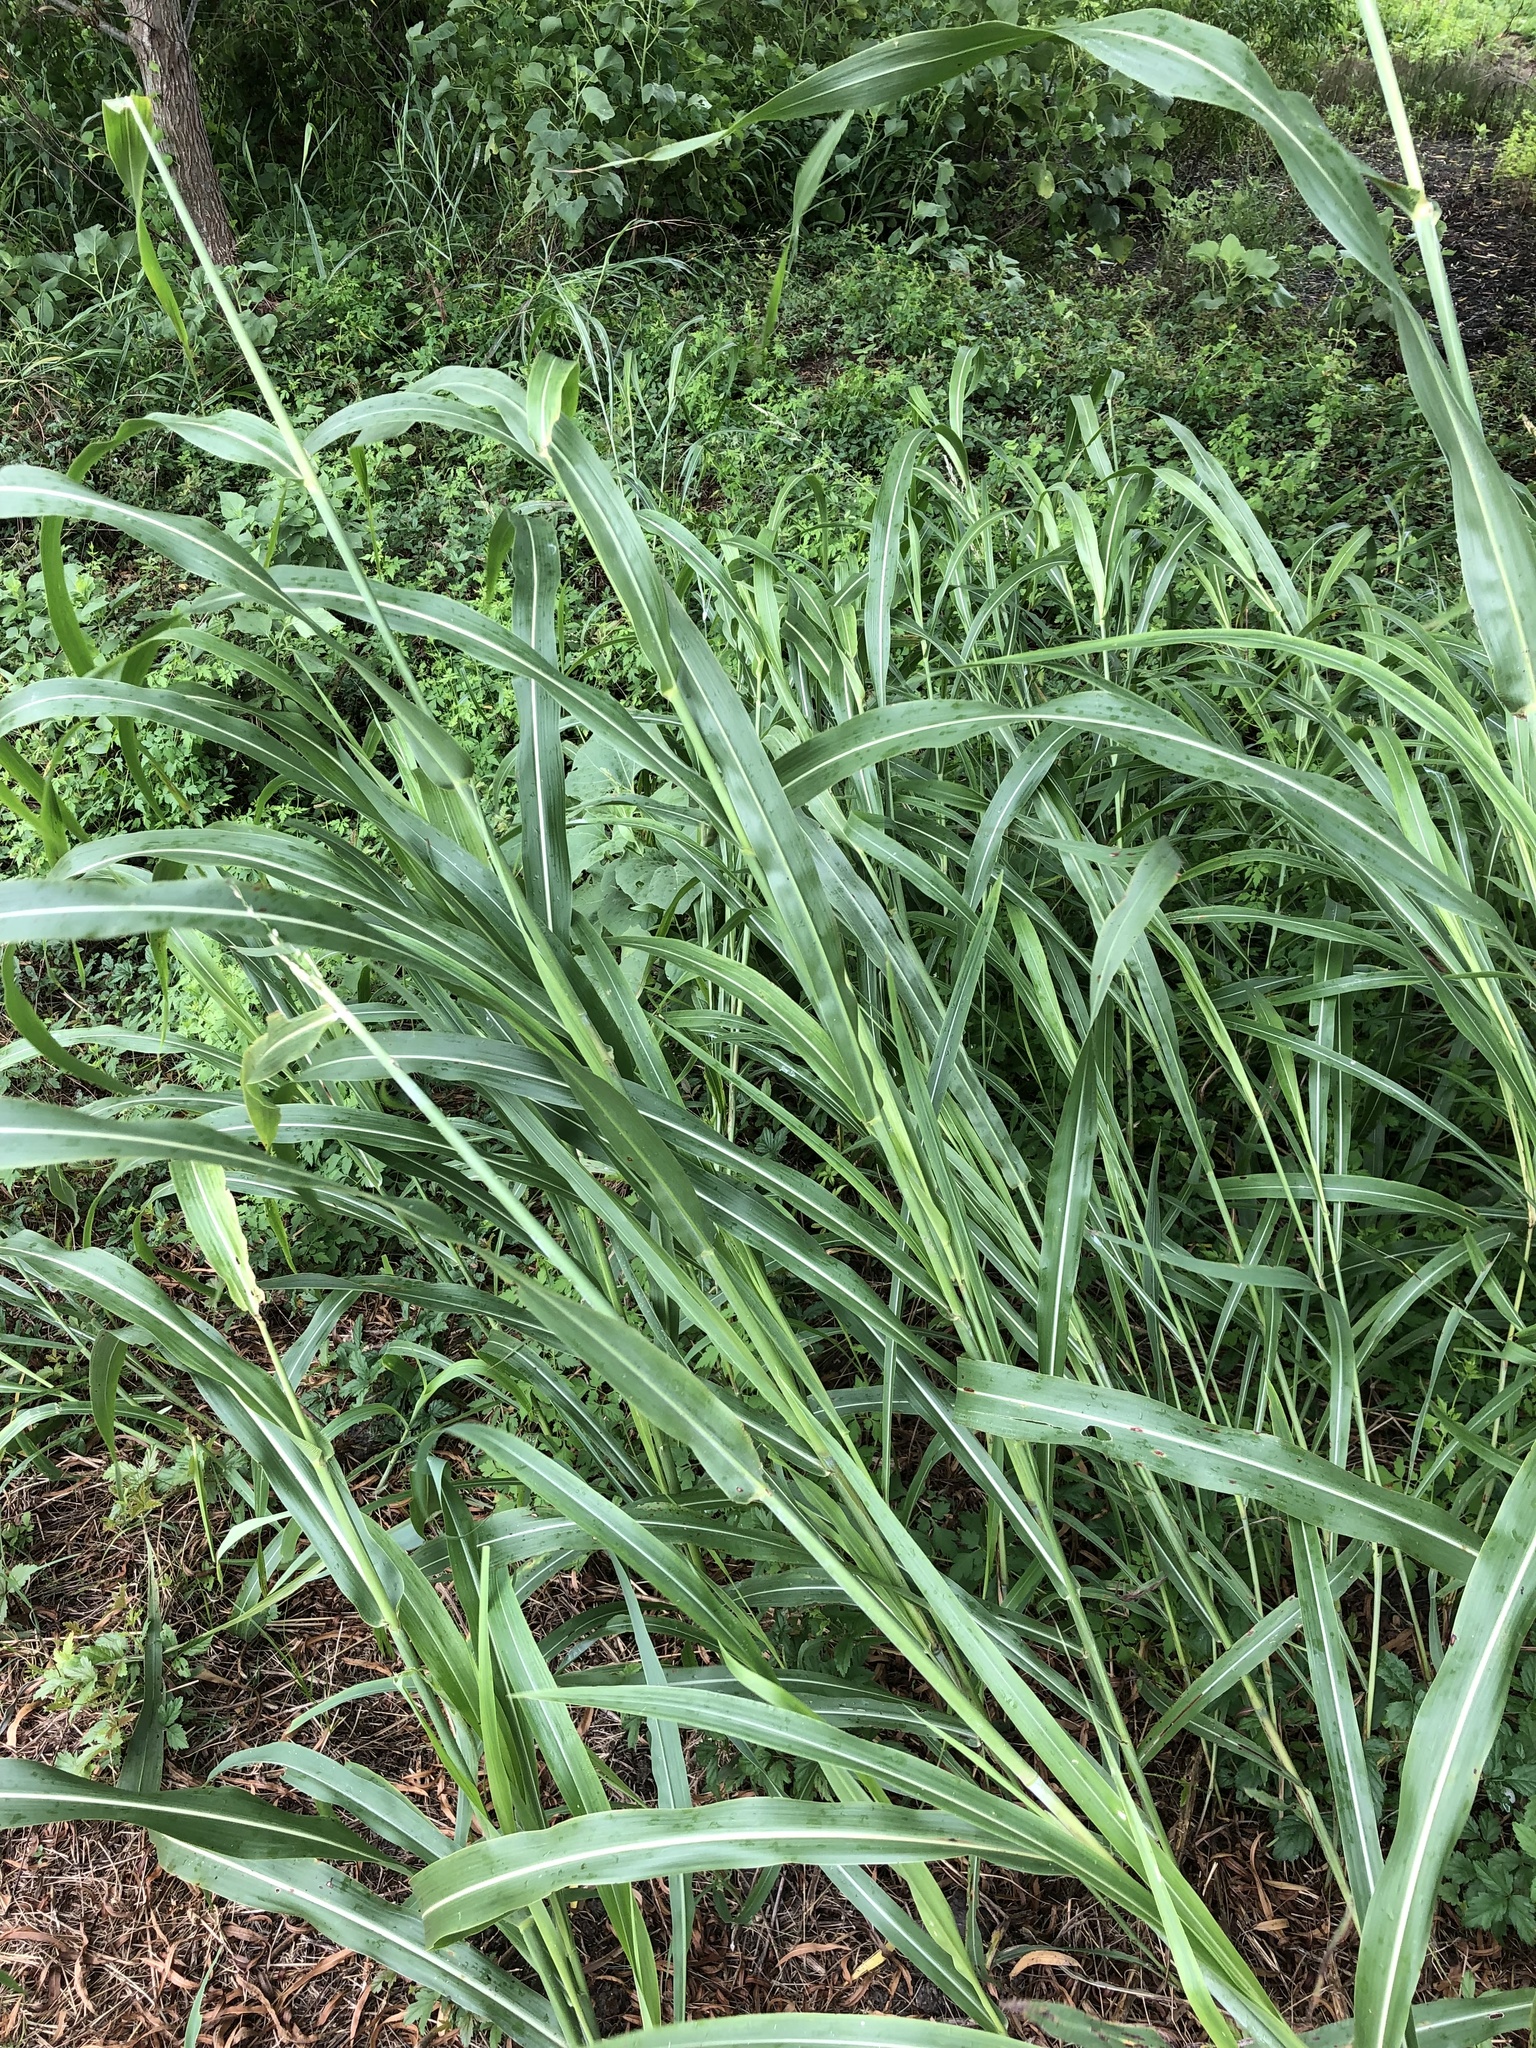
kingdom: Plantae
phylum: Tracheophyta
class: Liliopsida
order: Poales
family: Poaceae
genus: Sorghum
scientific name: Sorghum halepense
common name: Johnson-grass
